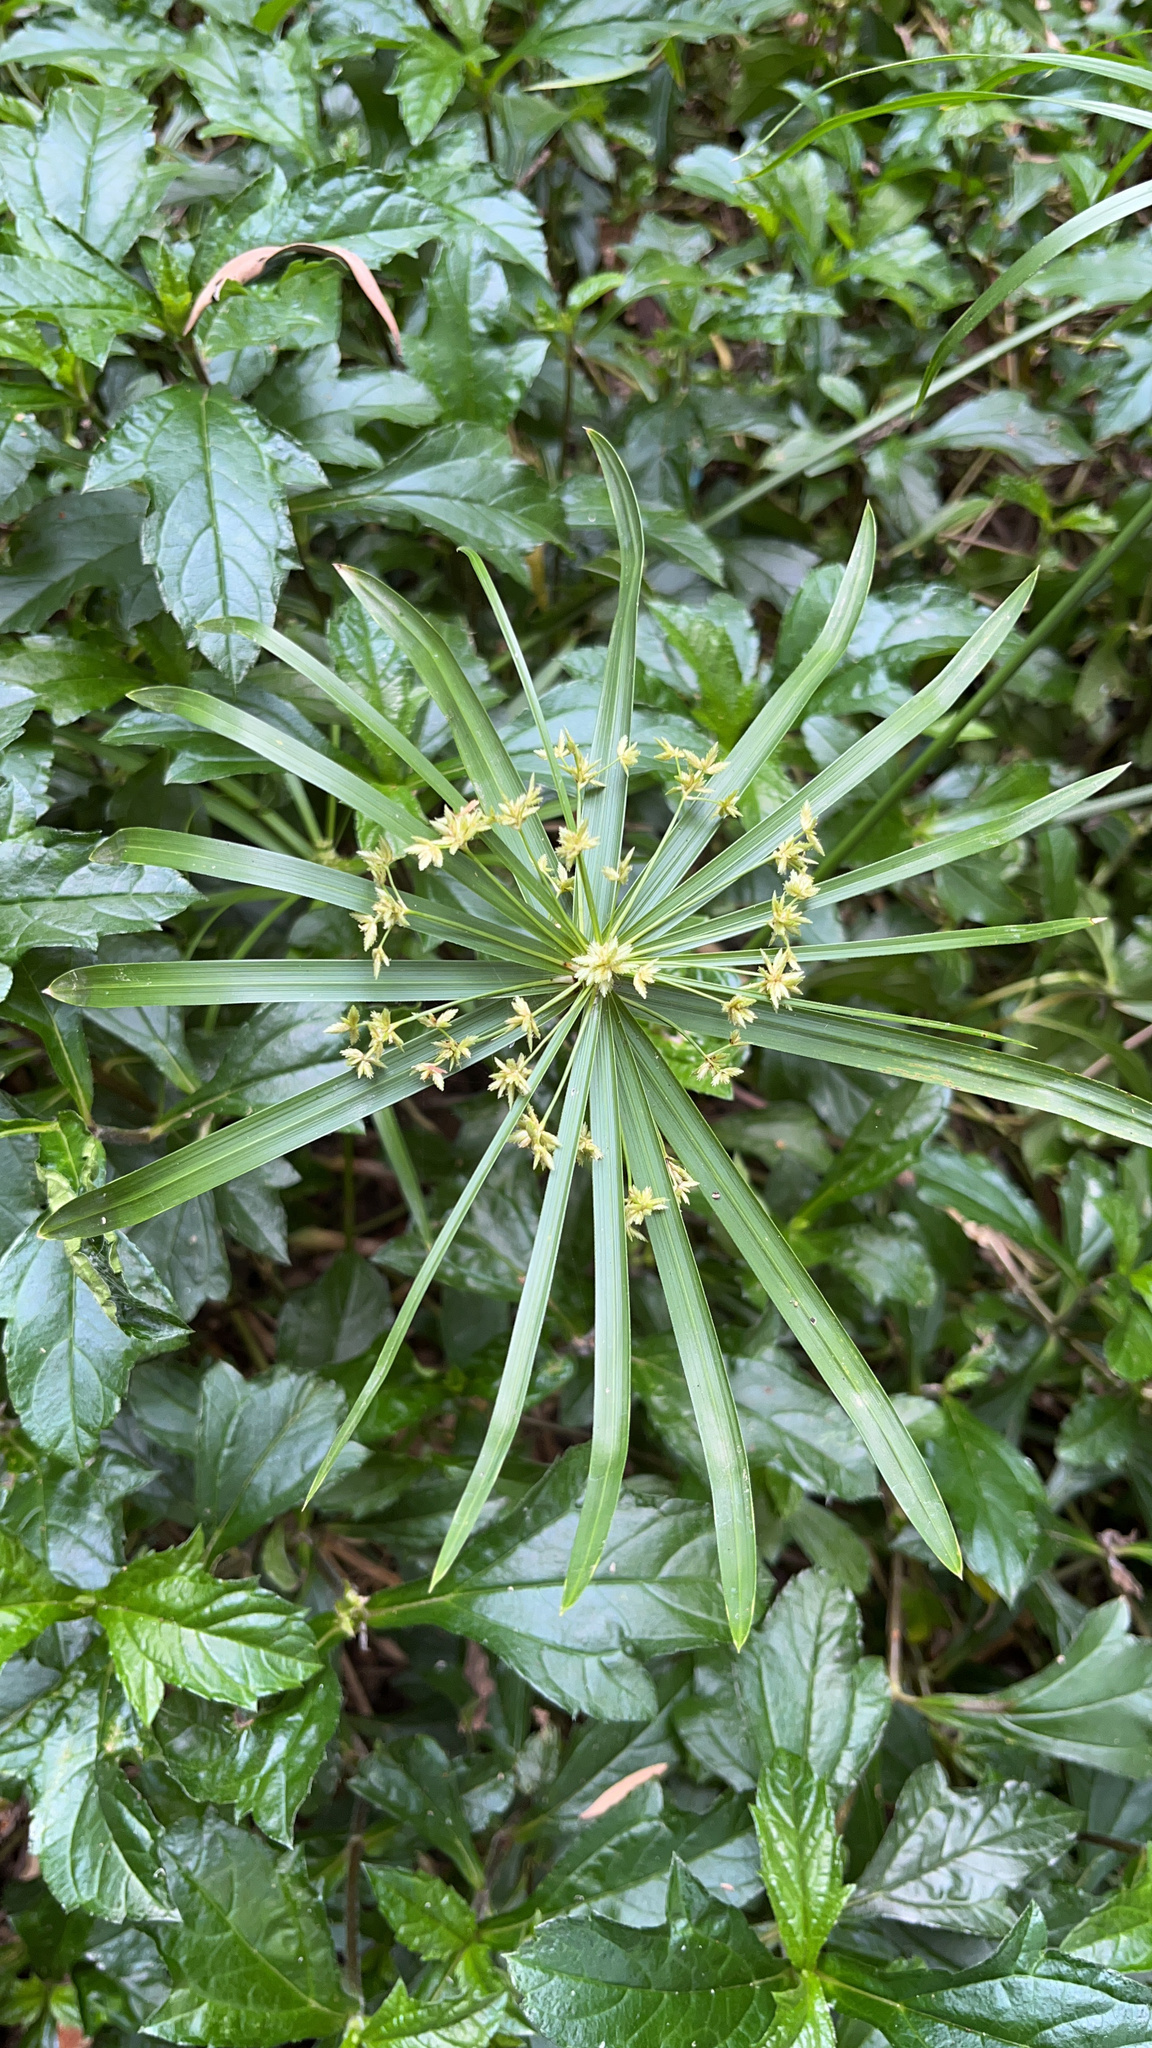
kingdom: Plantae
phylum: Tracheophyta
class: Liliopsida
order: Poales
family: Cyperaceae
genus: Cyperus
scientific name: Cyperus alternifolius
